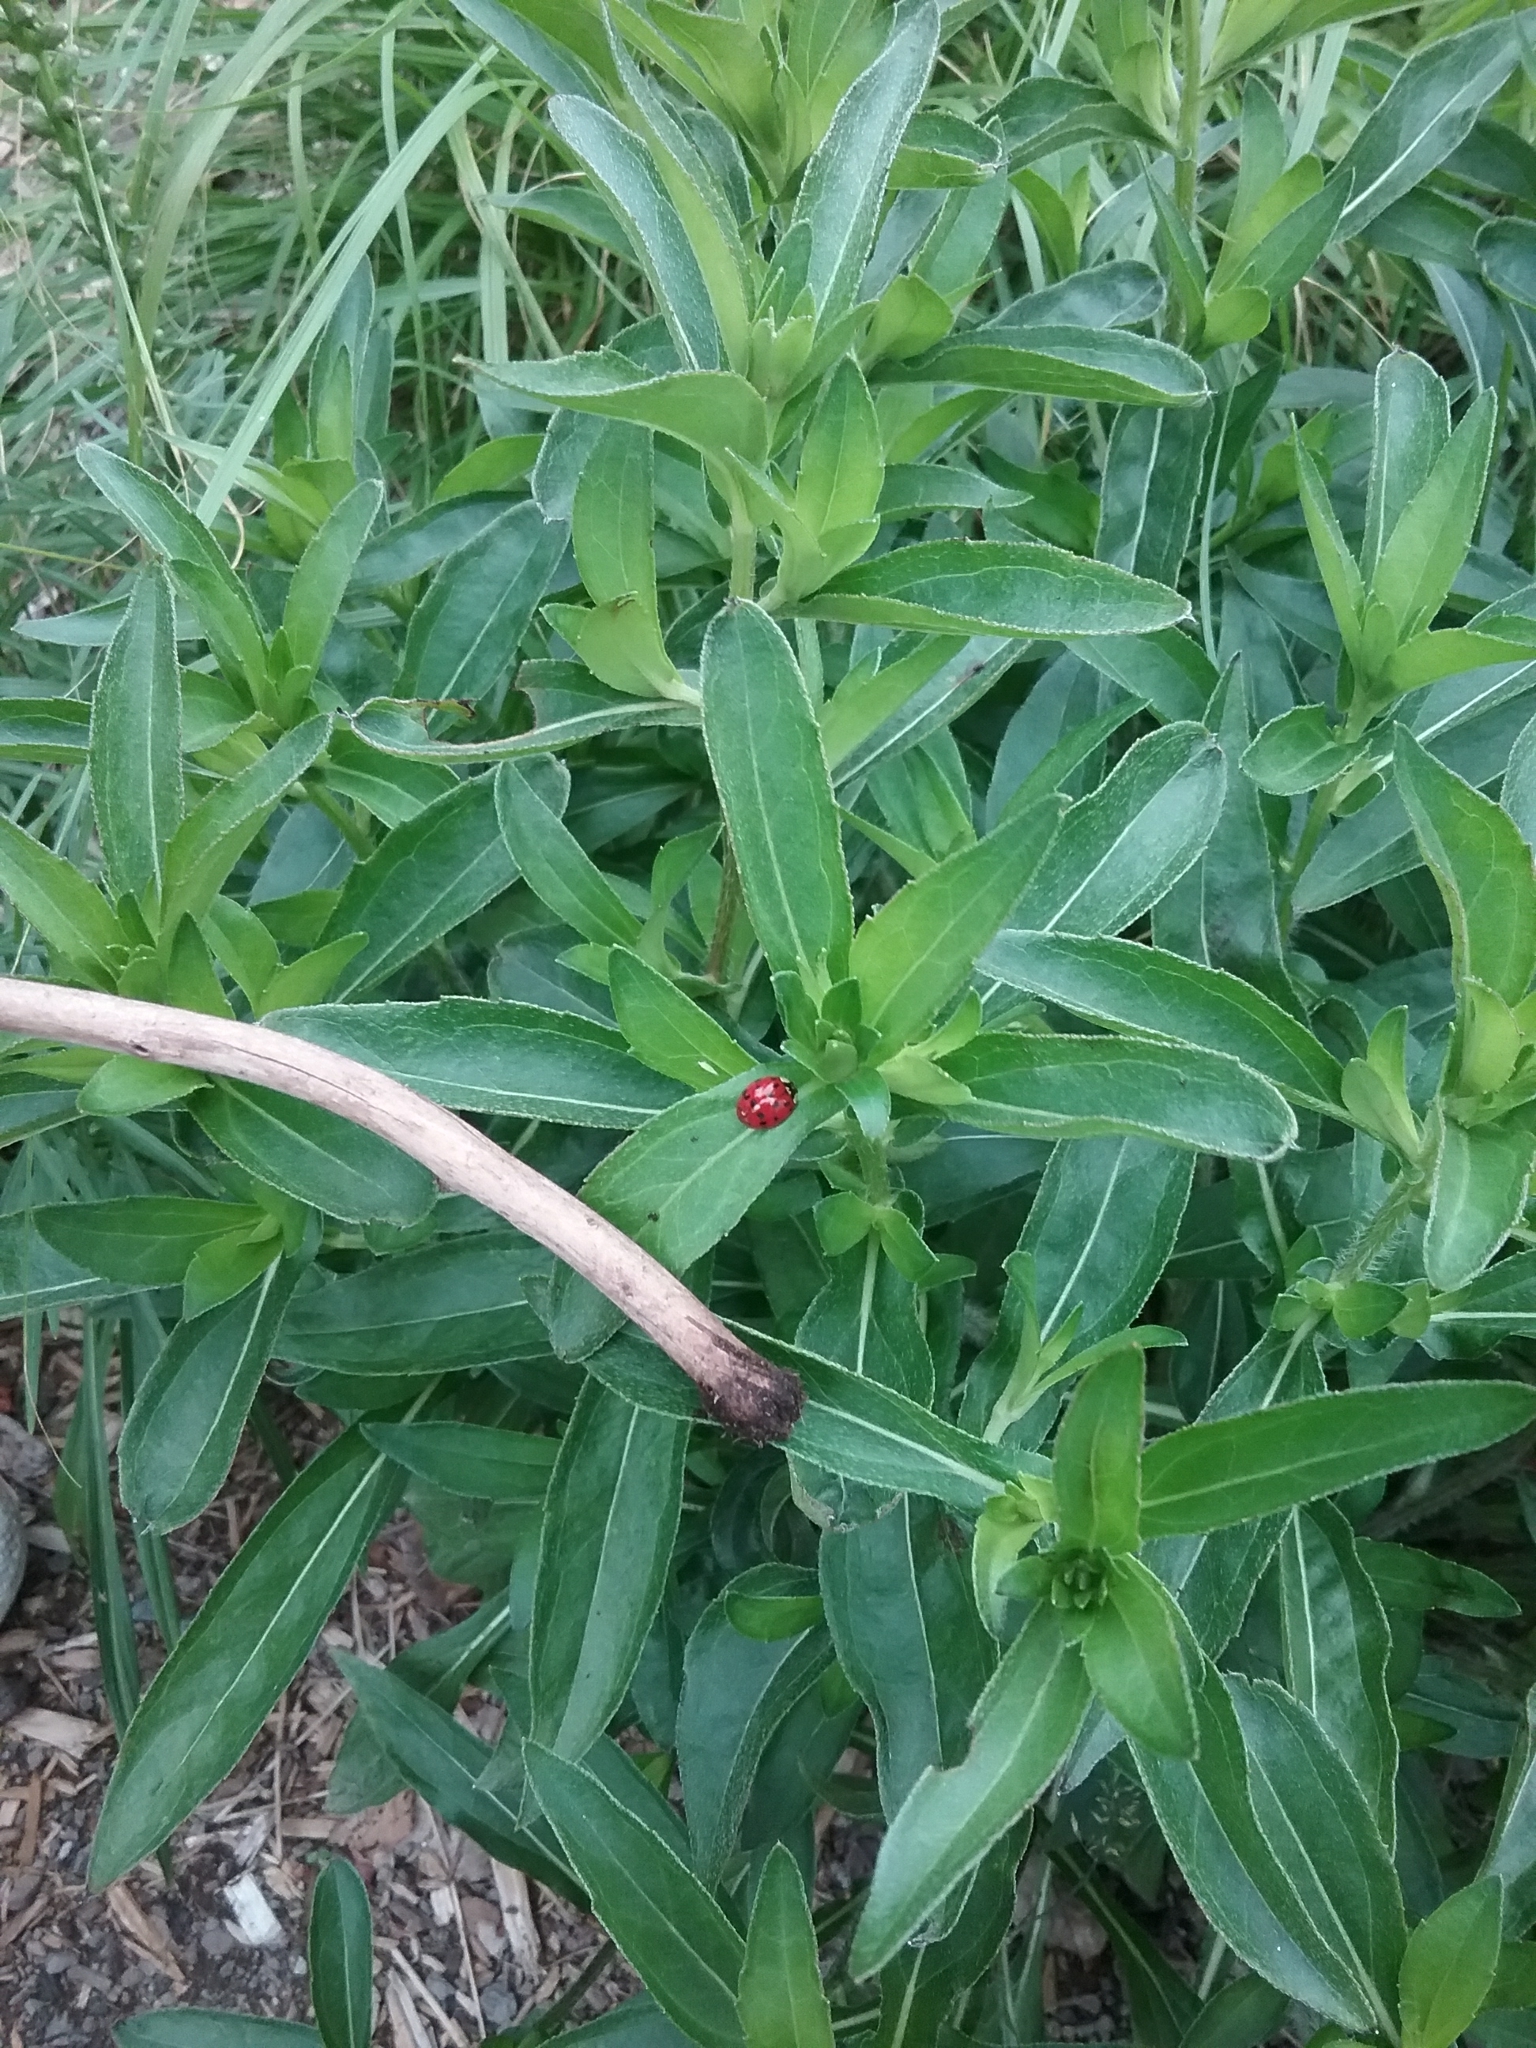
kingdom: Animalia
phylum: Arthropoda
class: Insecta
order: Coleoptera
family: Coccinellidae
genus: Harmonia
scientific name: Harmonia axyridis
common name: Harlequin ladybird
